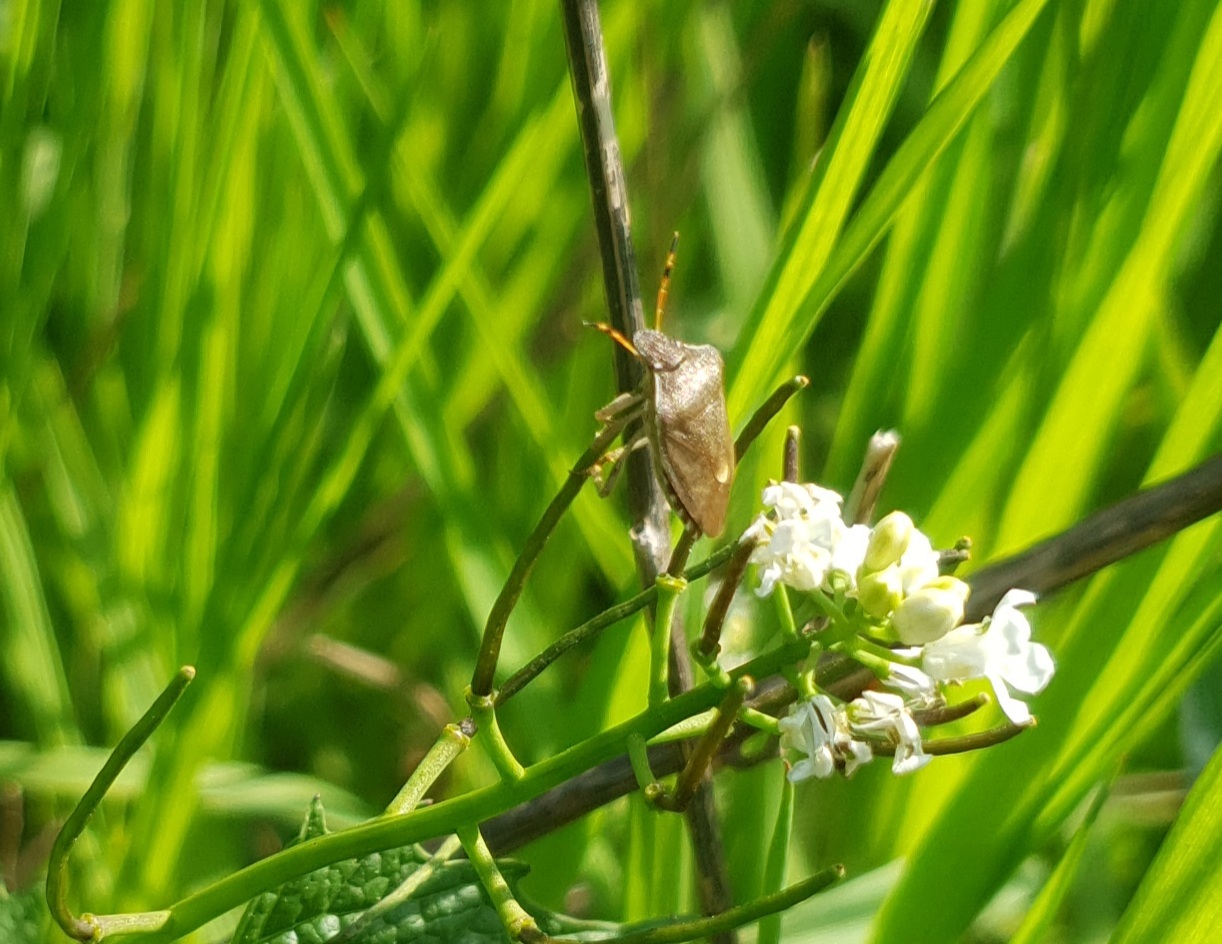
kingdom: Animalia
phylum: Arthropoda
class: Insecta
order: Hemiptera
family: Pentatomidae
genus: Holcostethus
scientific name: Holcostethus strictus
